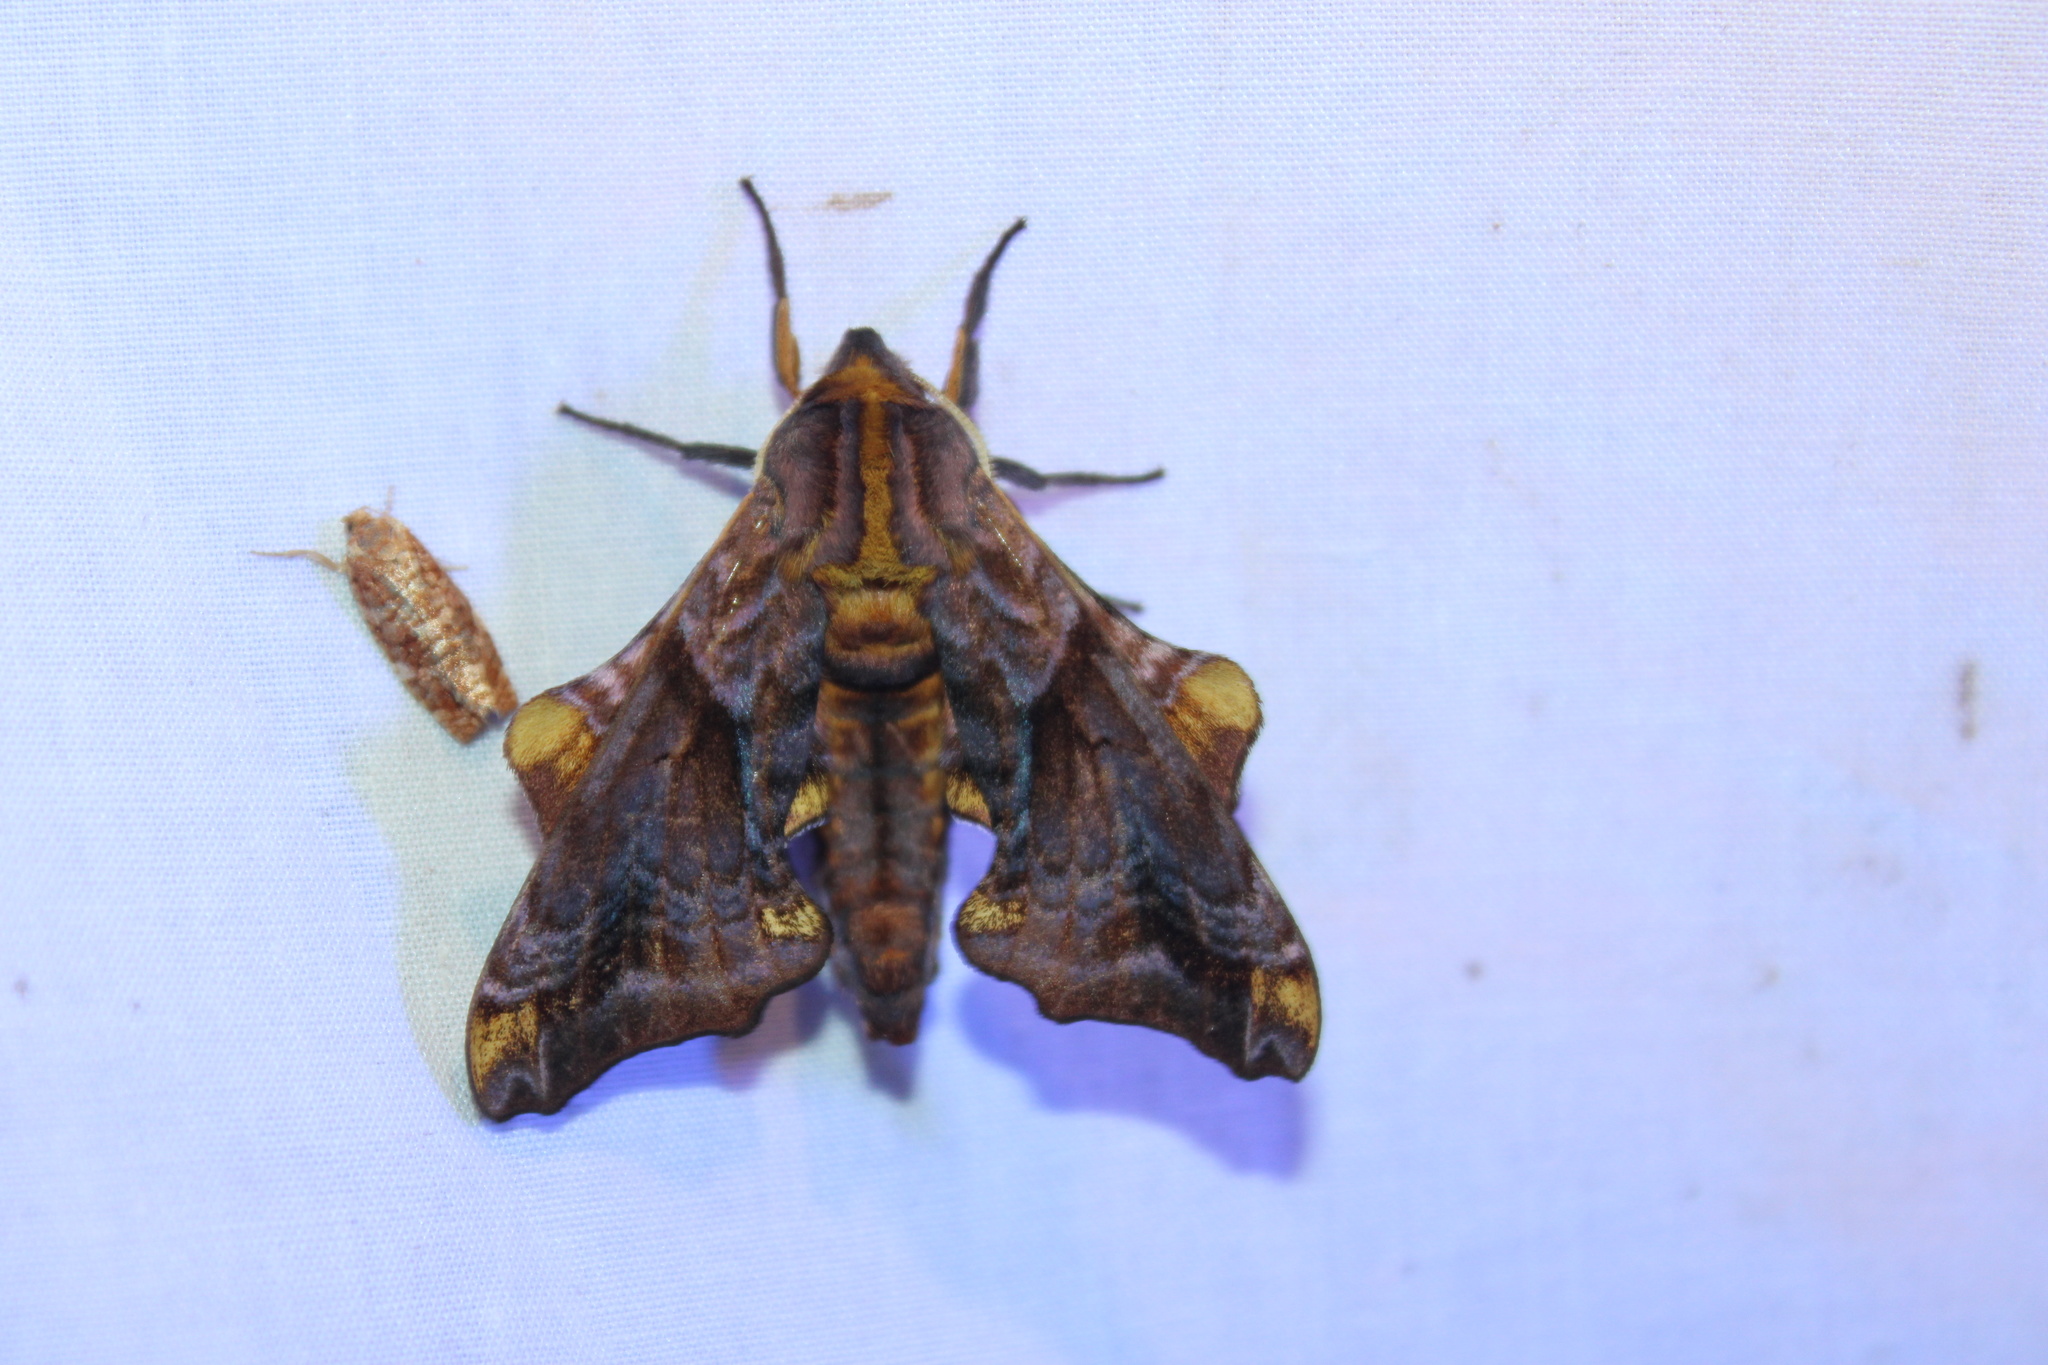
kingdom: Animalia
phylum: Arthropoda
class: Insecta
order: Lepidoptera
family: Sphingidae
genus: Paonias
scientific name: Paonias myops
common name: Small-eyed sphinx
